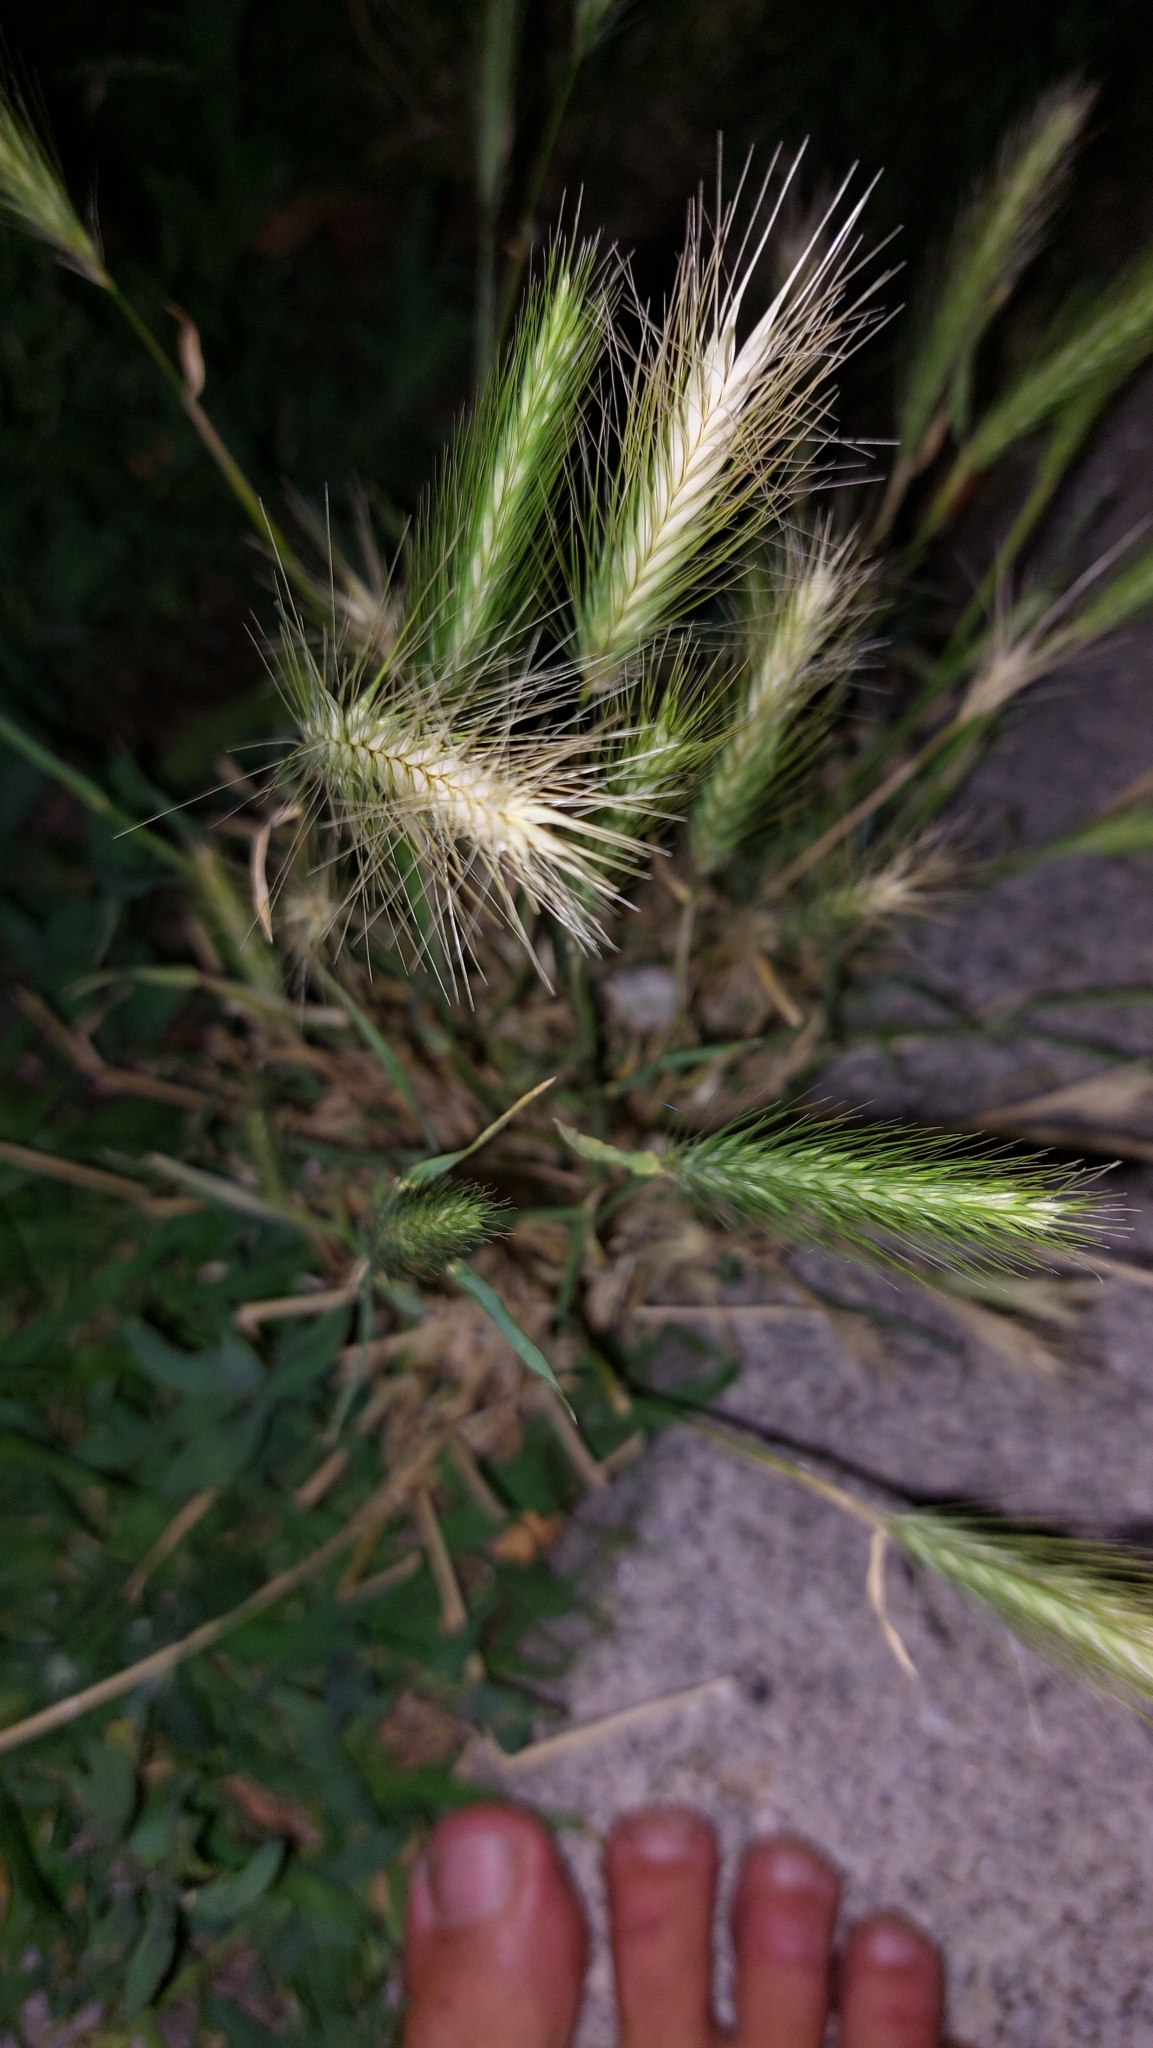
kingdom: Plantae
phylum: Tracheophyta
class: Liliopsida
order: Poales
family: Poaceae
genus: Hordeum
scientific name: Hordeum murinum
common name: Wall barley
